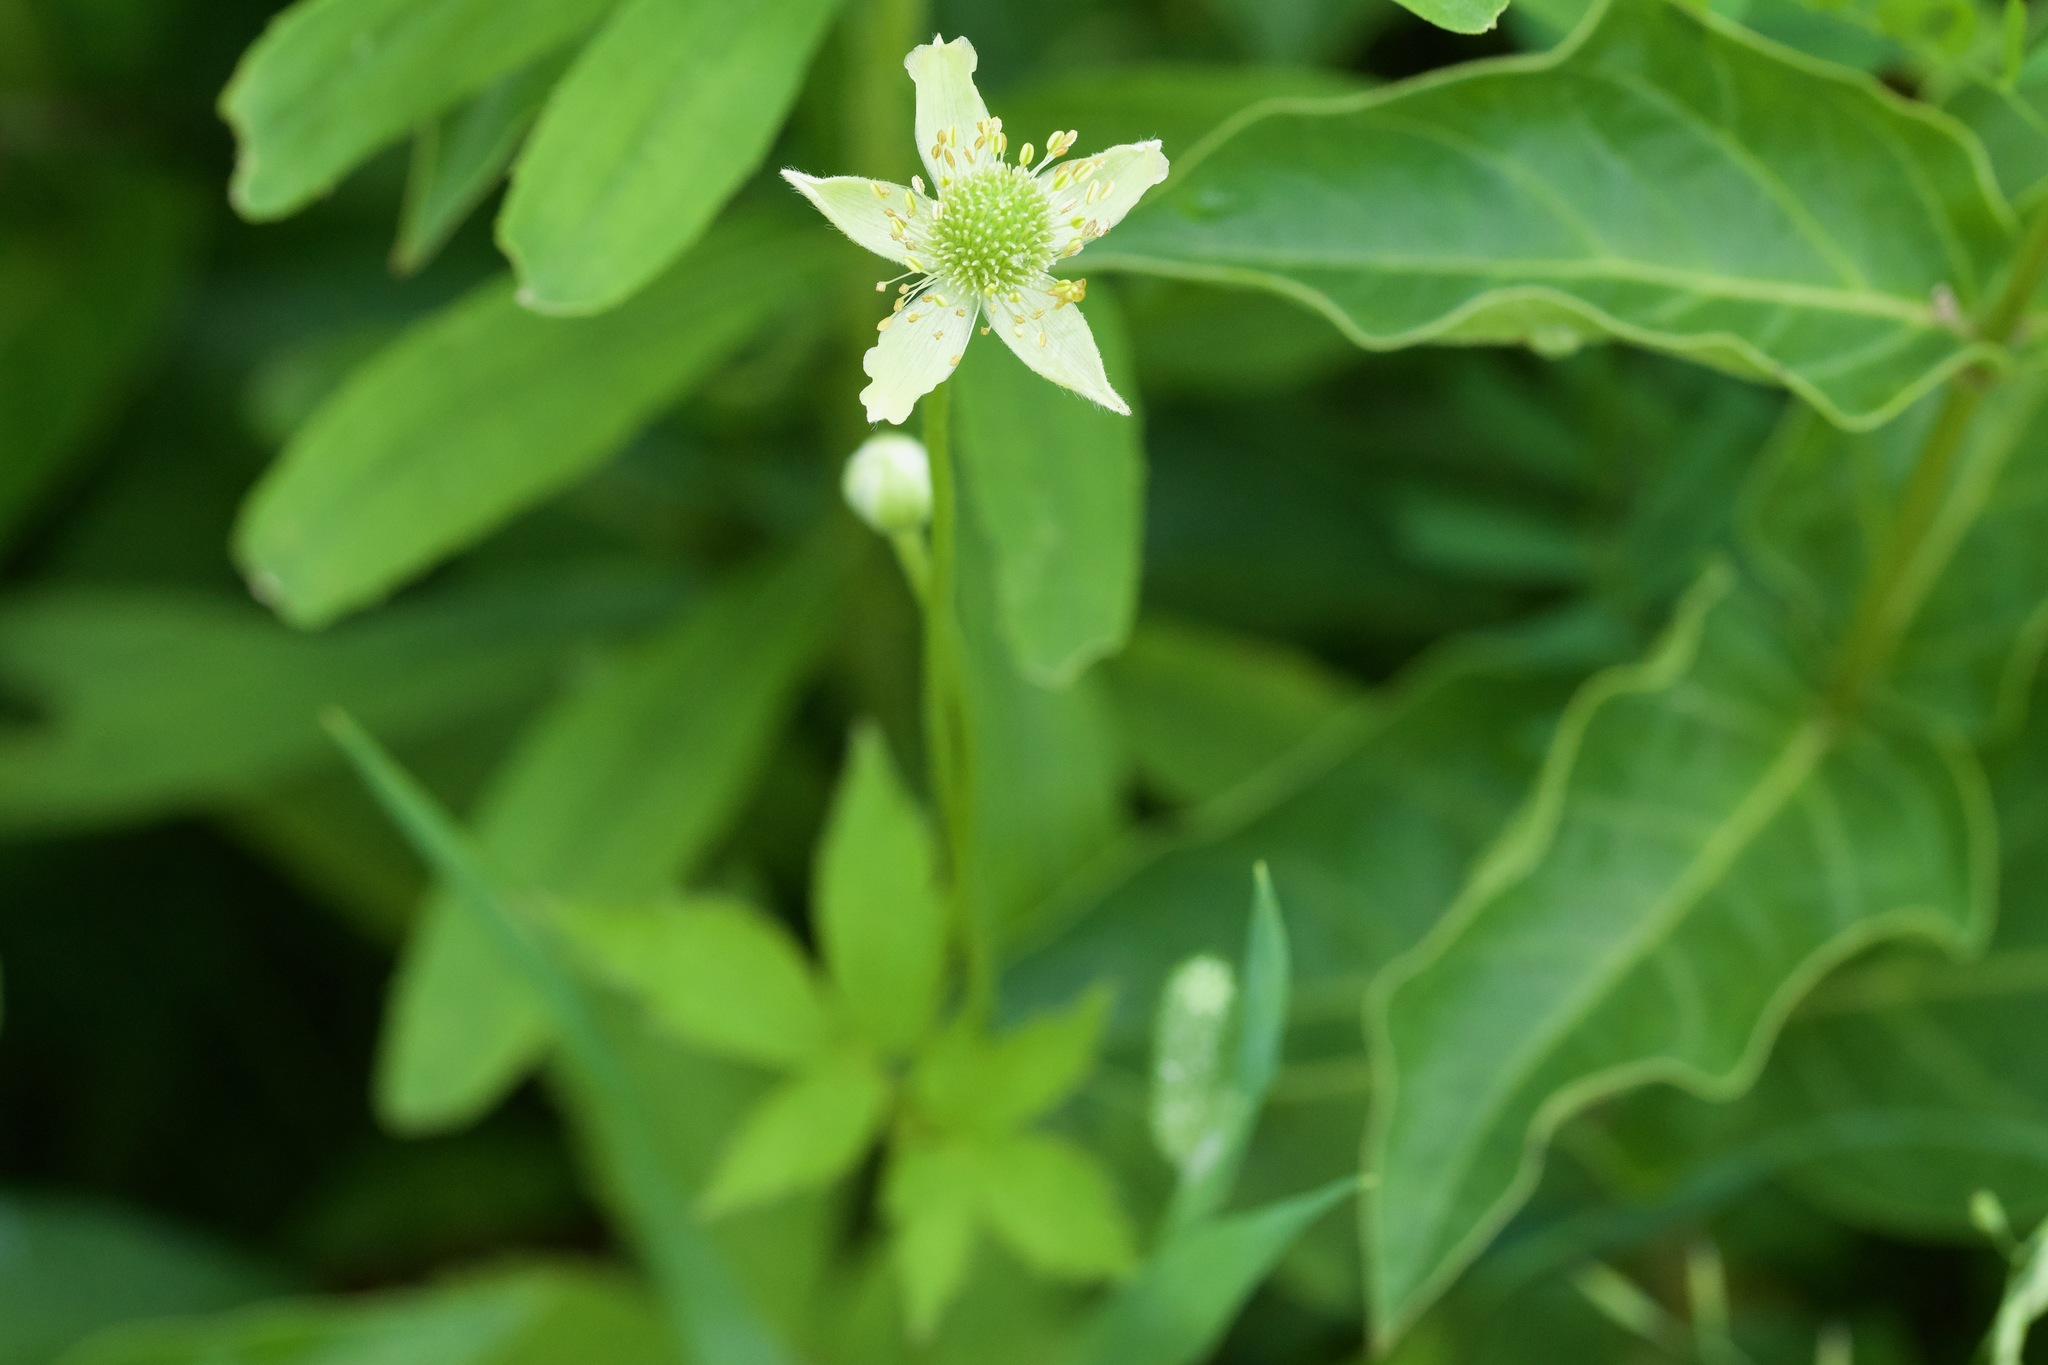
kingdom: Plantae
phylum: Tracheophyta
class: Magnoliopsida
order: Ranunculales
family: Ranunculaceae
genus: Anemone
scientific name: Anemone virginiana
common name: Tall anemone
